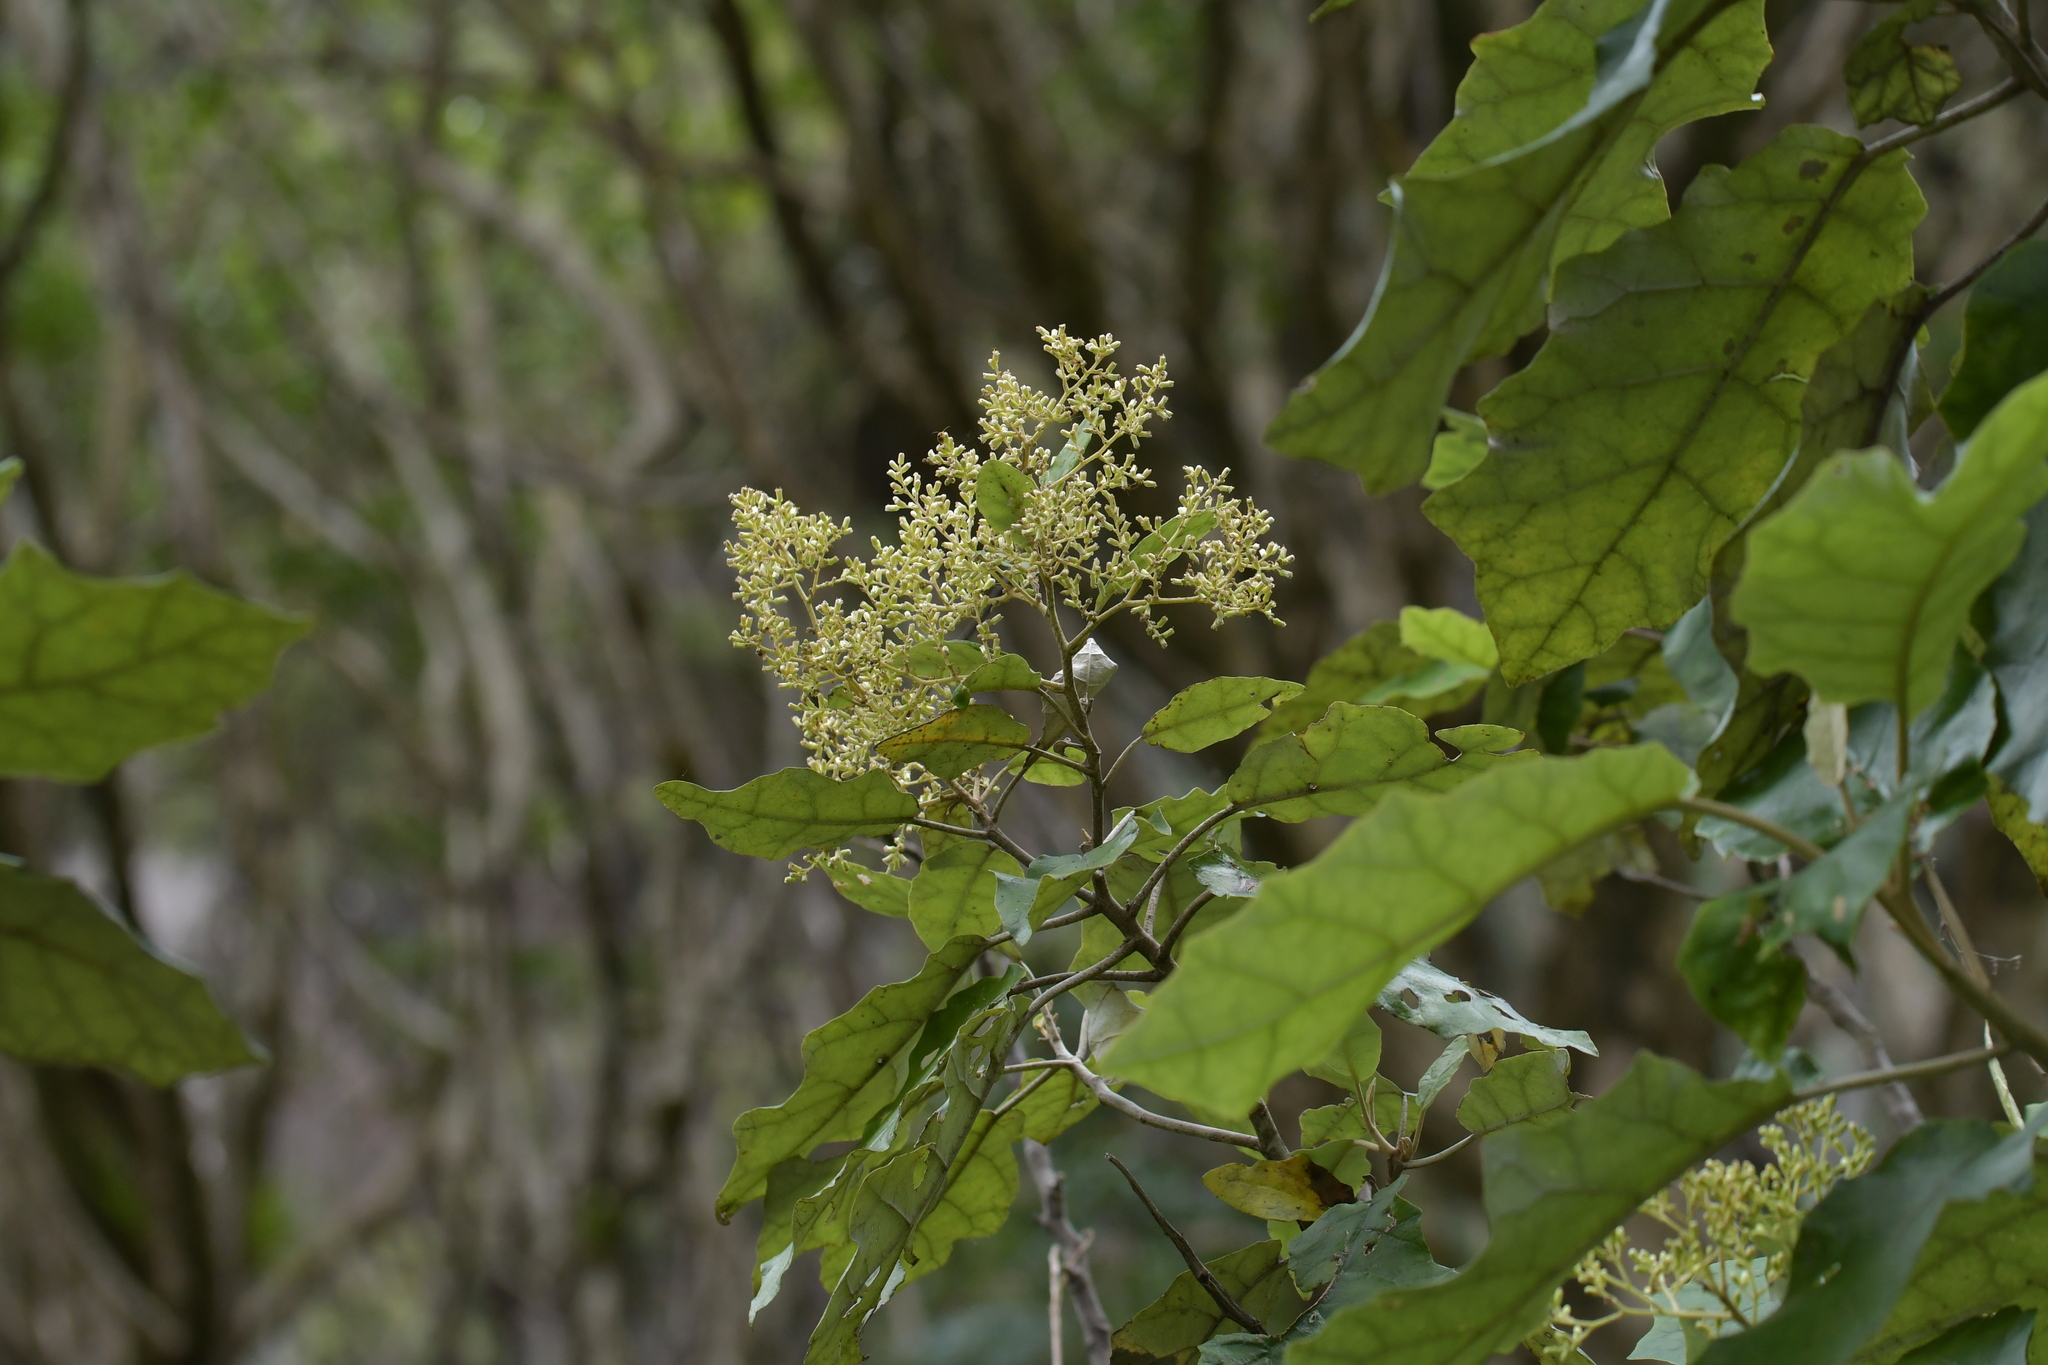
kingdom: Plantae
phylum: Tracheophyta
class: Magnoliopsida
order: Asterales
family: Asteraceae
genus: Brachyglottis
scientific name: Brachyglottis repanda
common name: Hedge ragwort
